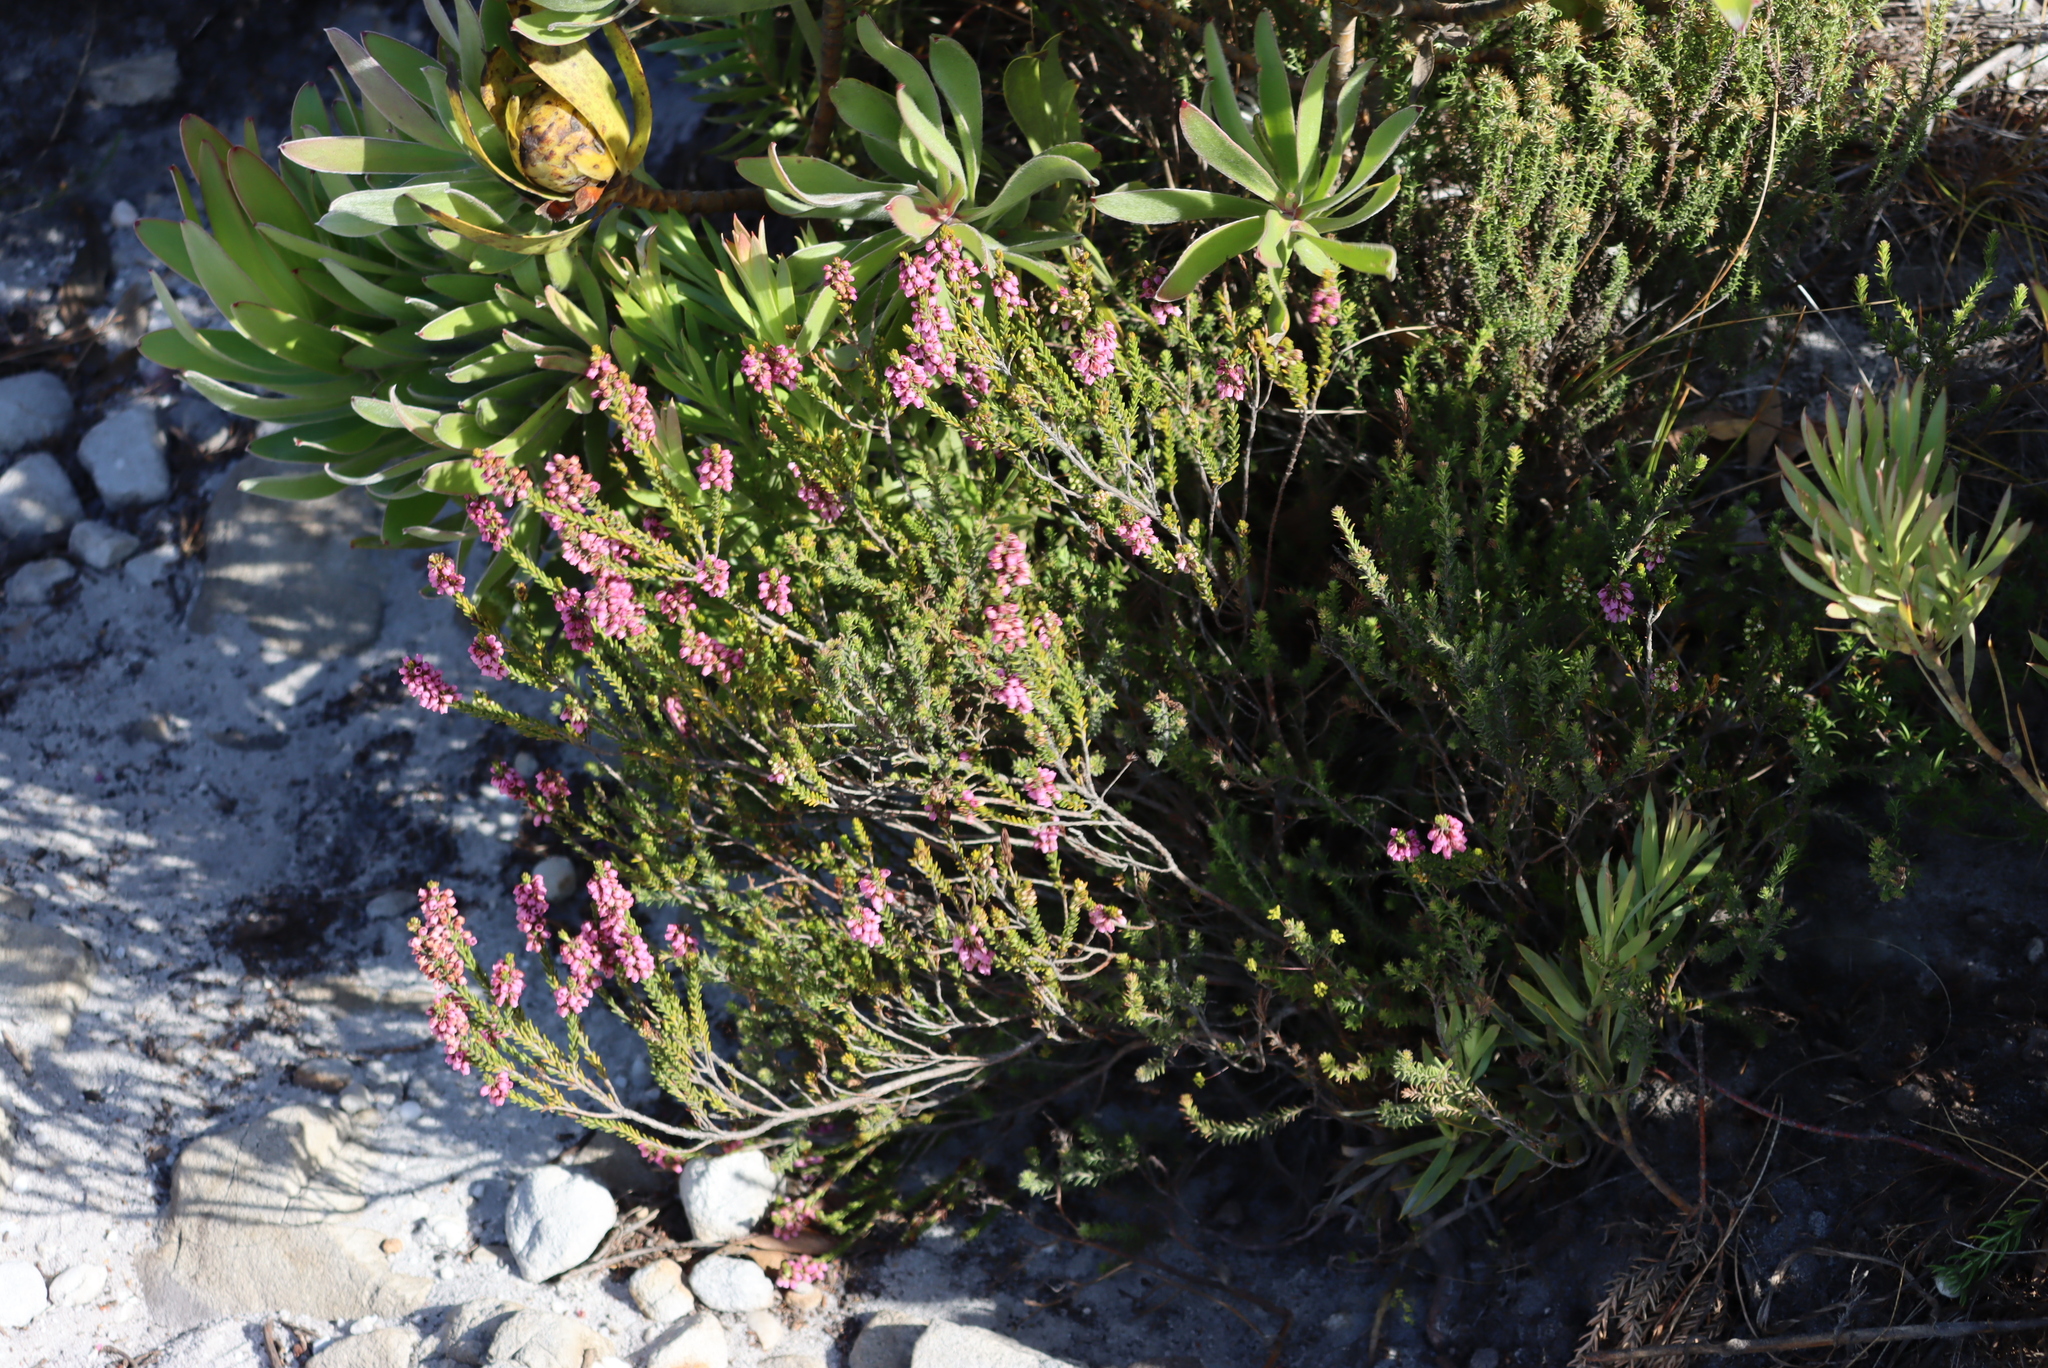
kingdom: Plantae
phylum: Tracheophyta
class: Magnoliopsida
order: Ericales
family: Ericaceae
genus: Erica
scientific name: Erica pulchella
